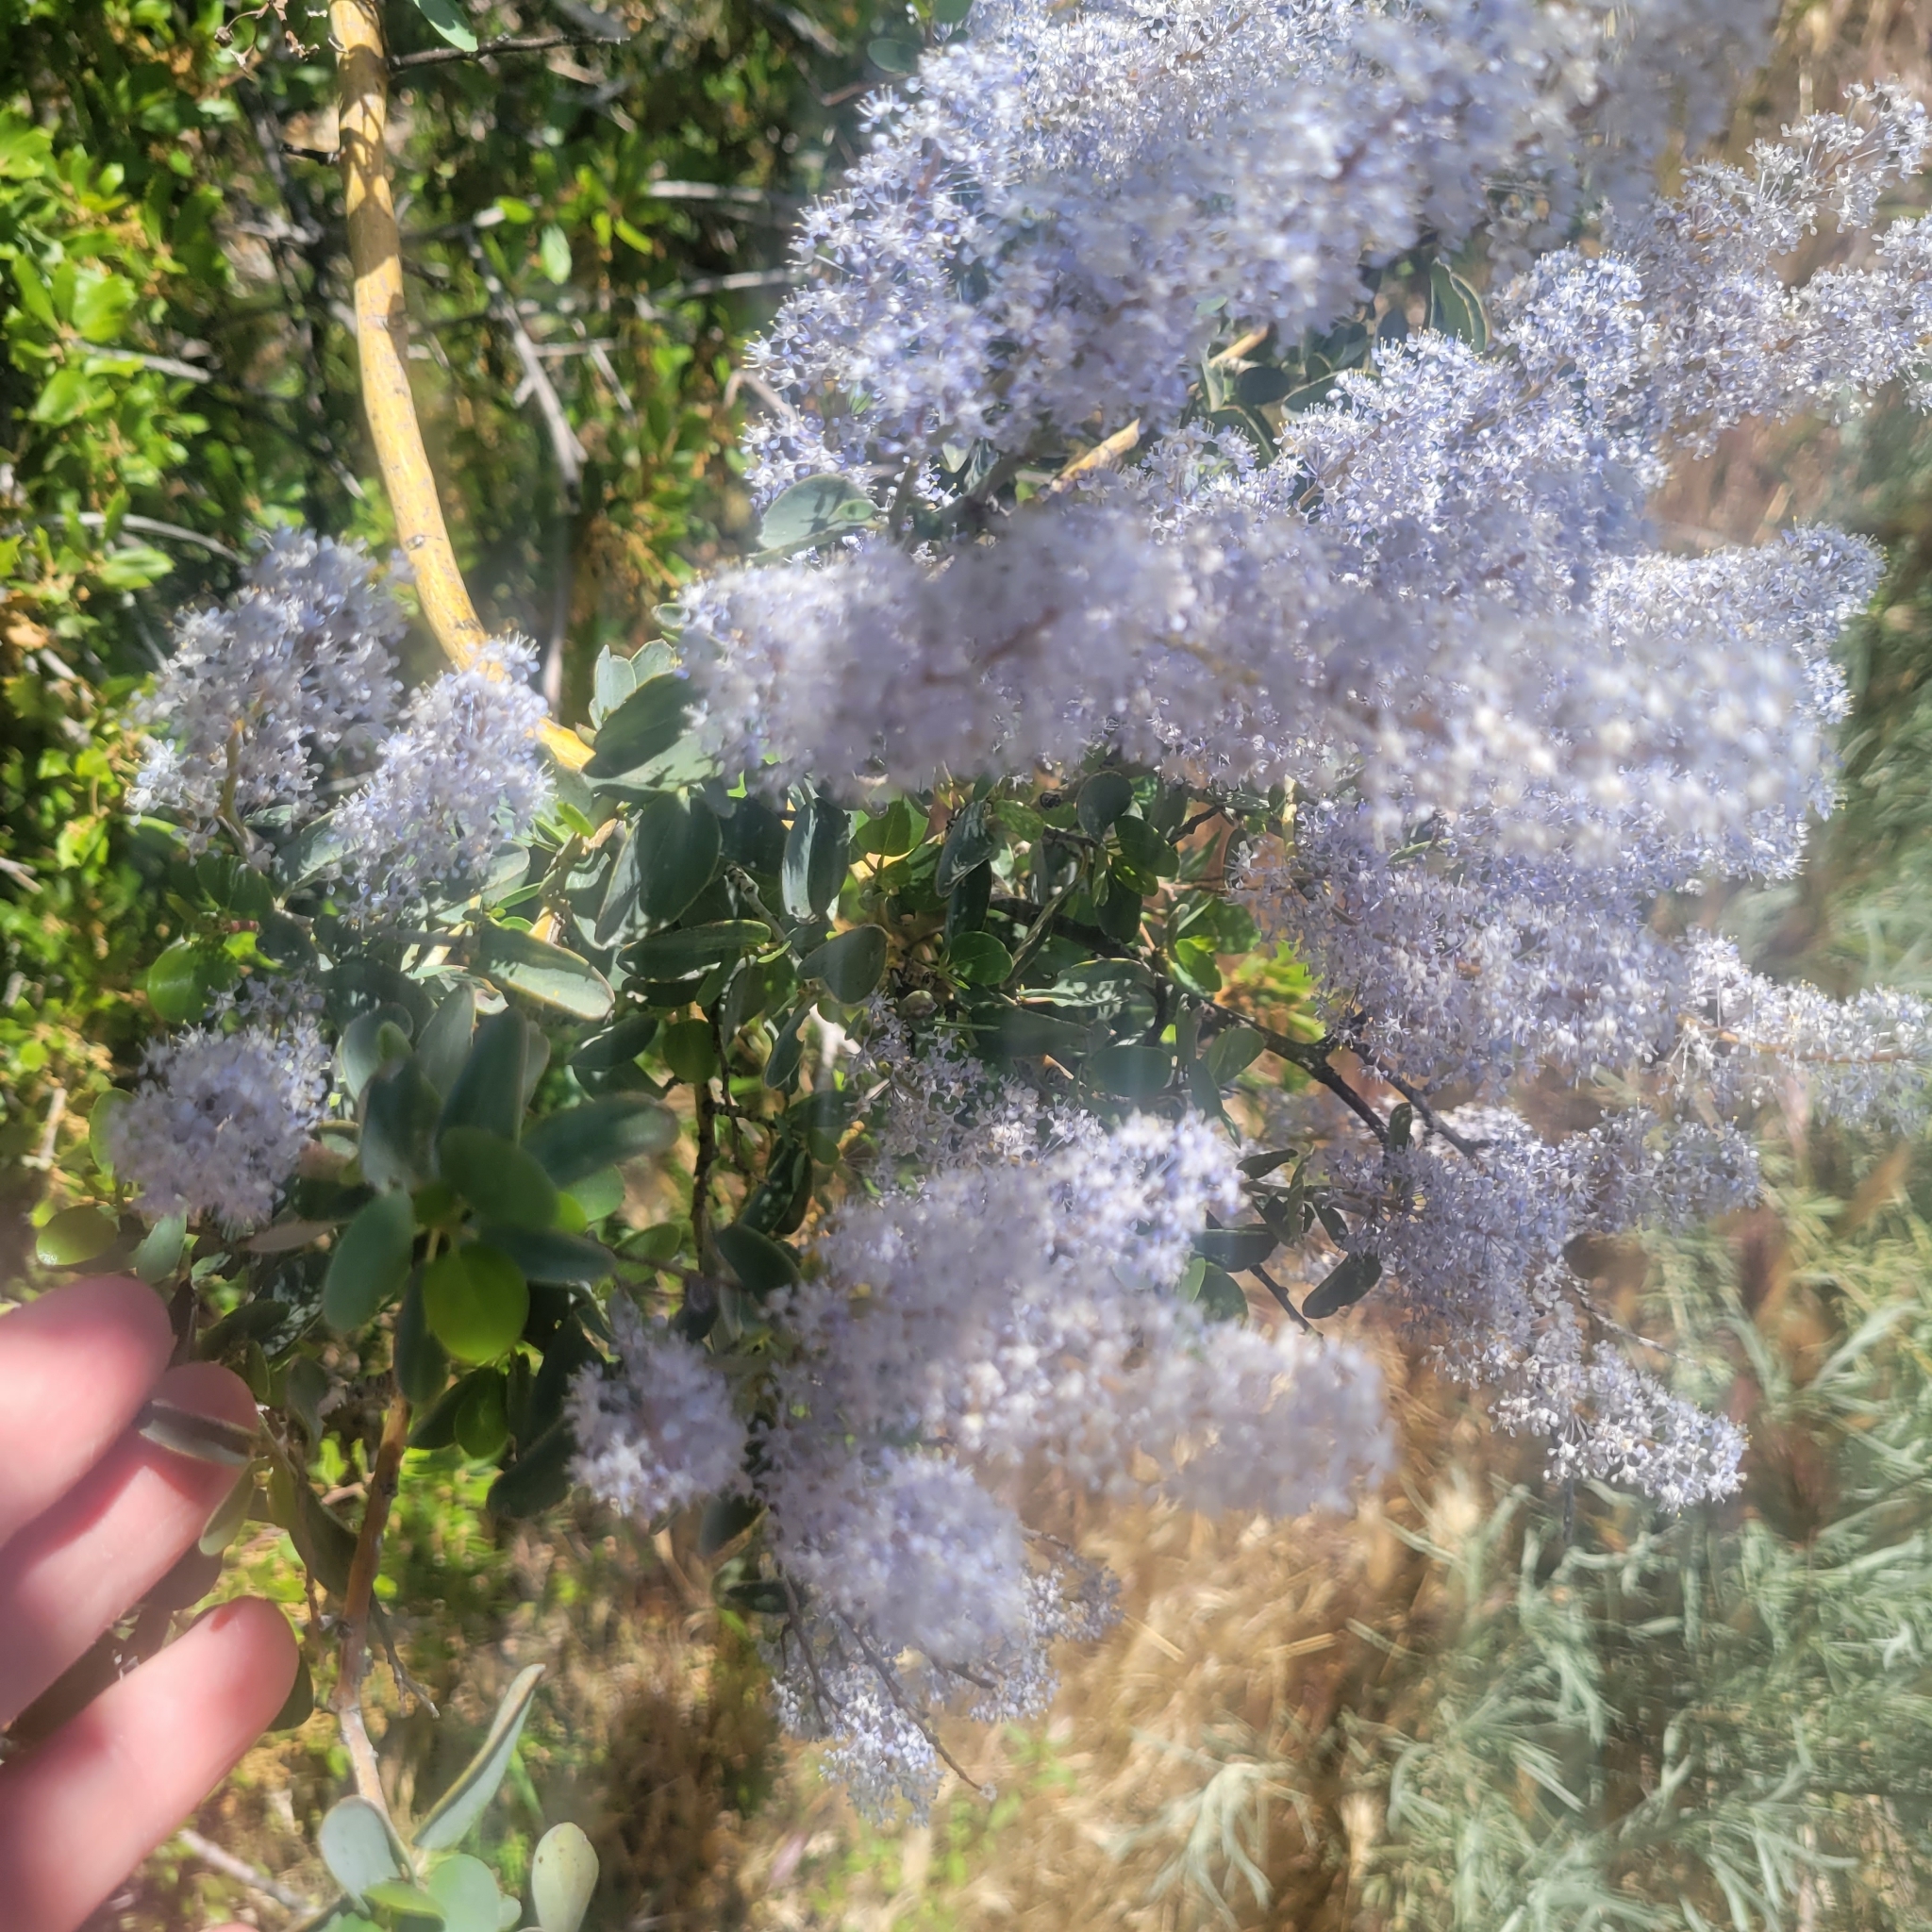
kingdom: Plantae
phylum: Tracheophyta
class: Magnoliopsida
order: Rosales
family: Rhamnaceae
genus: Ceanothus
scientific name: Ceanothus leucodermis
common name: Chaparral whitethorn
